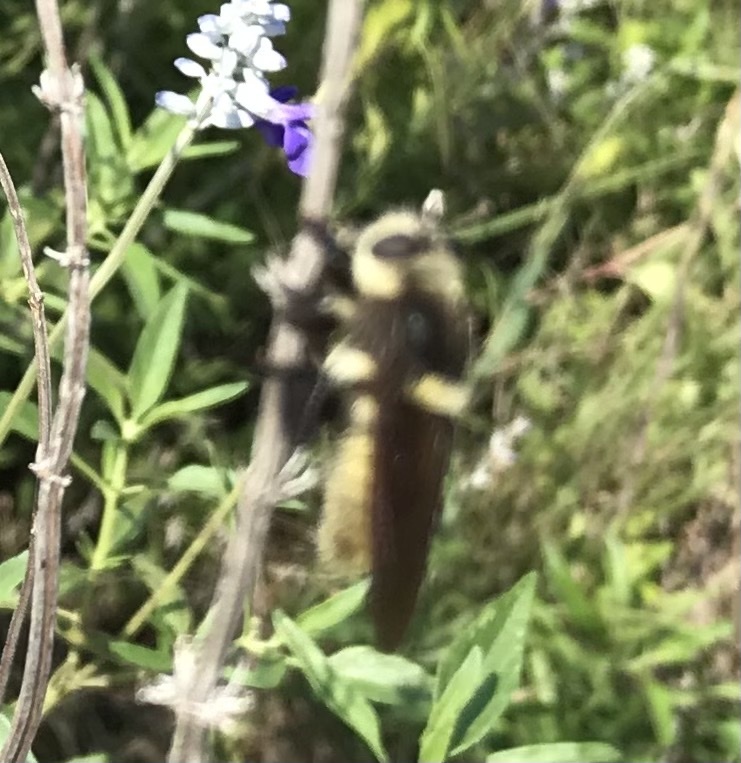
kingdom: Animalia
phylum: Arthropoda
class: Insecta
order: Diptera
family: Asilidae
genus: Mallophora
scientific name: Mallophora fautrix
